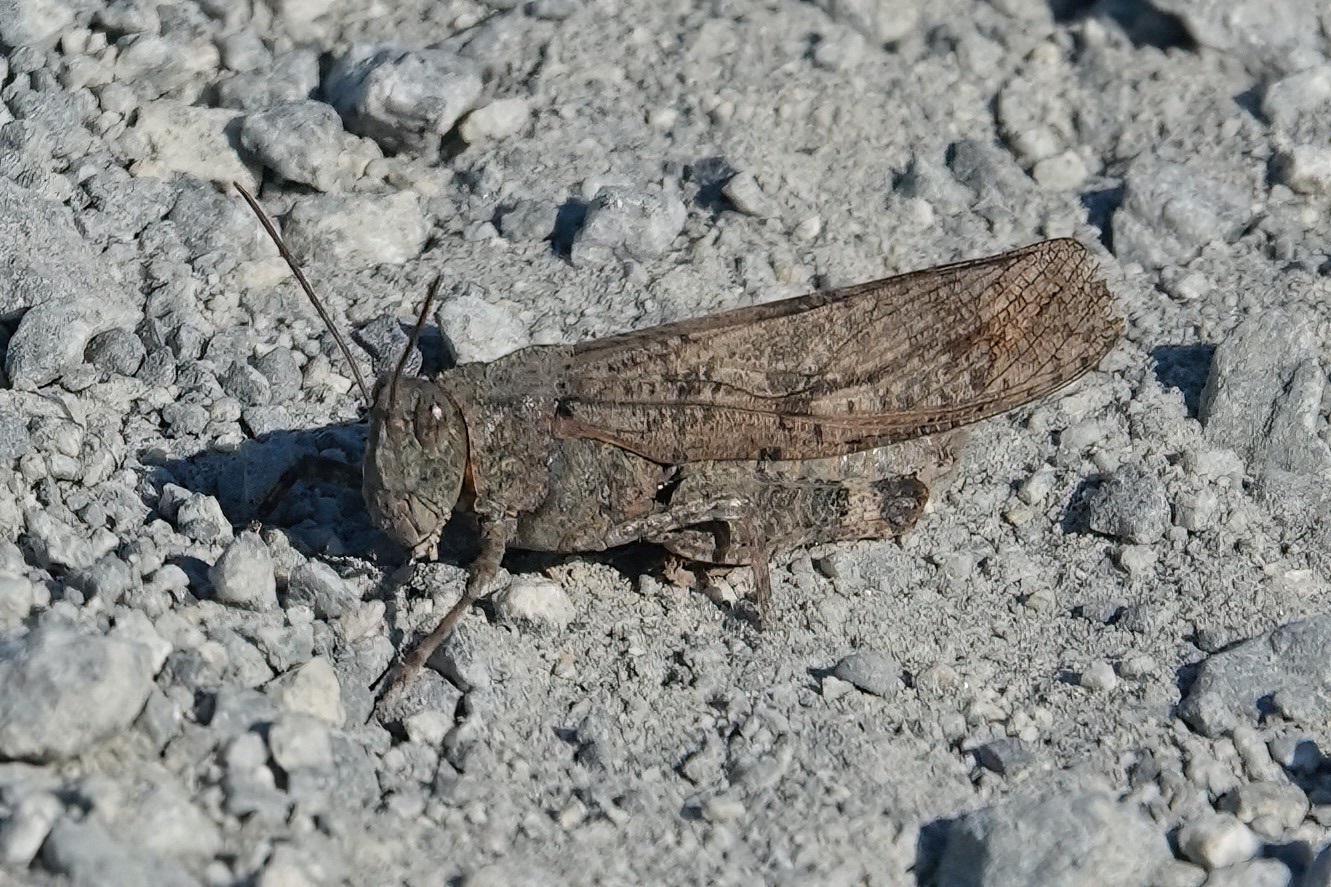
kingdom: Animalia
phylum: Arthropoda
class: Insecta
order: Orthoptera
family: Acrididae
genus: Dissosteira
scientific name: Dissosteira carolina
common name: Carolina grasshopper
